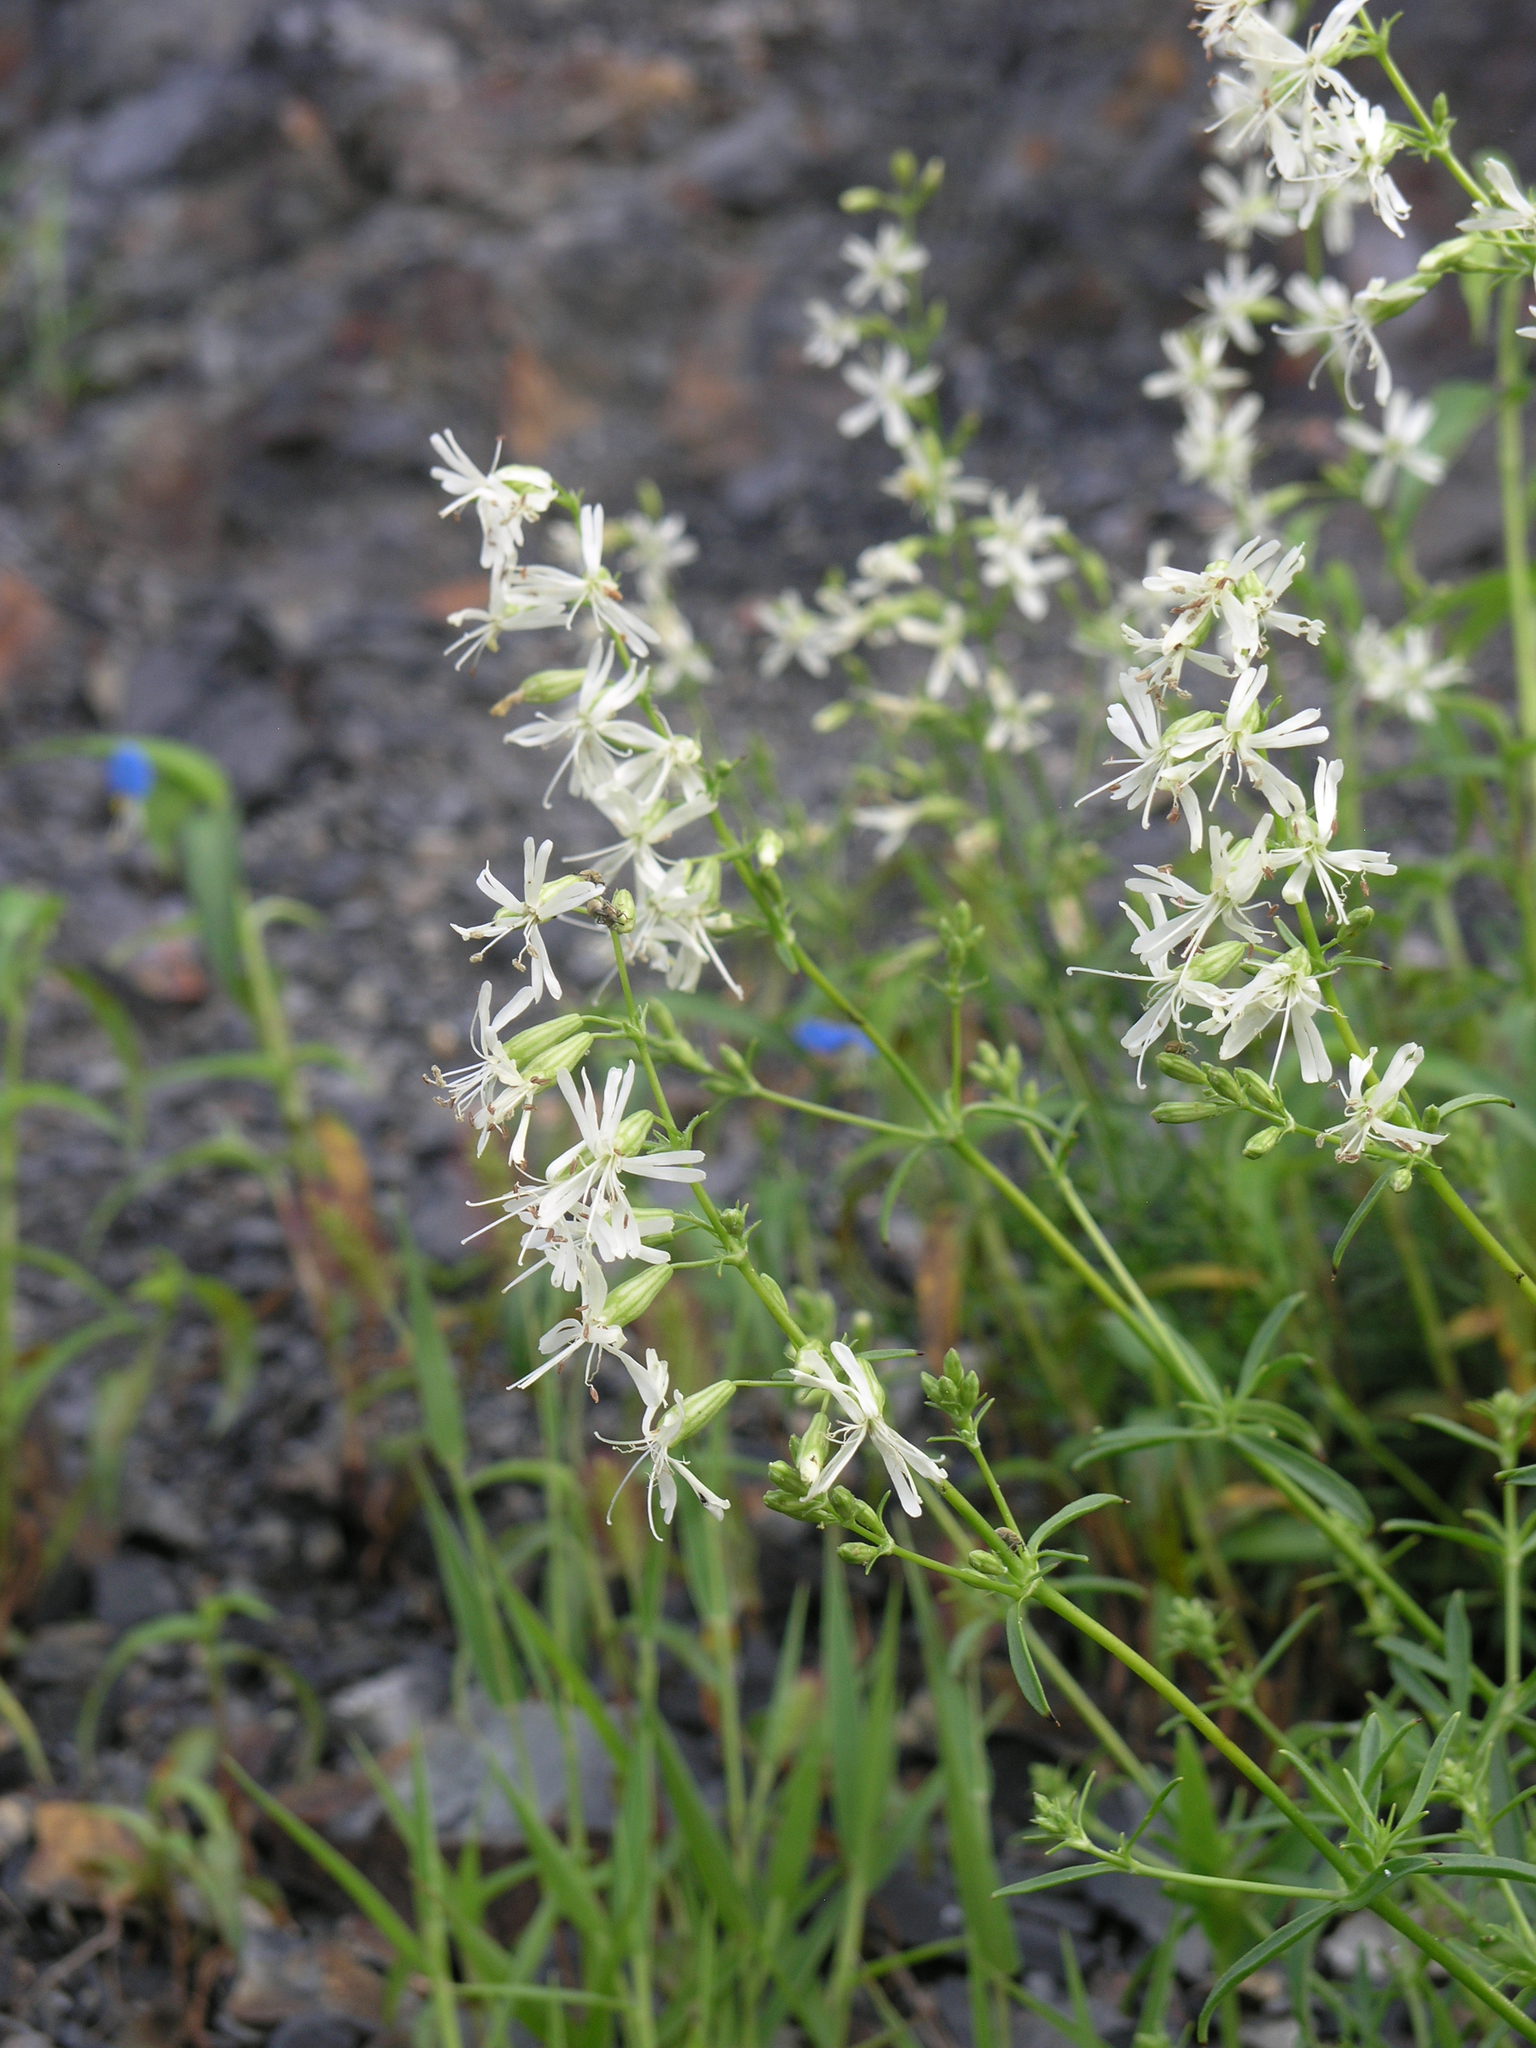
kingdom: Plantae
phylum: Tracheophyta
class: Magnoliopsida
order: Caryophyllales
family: Caryophyllaceae
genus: Silene
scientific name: Silene macrostyla
